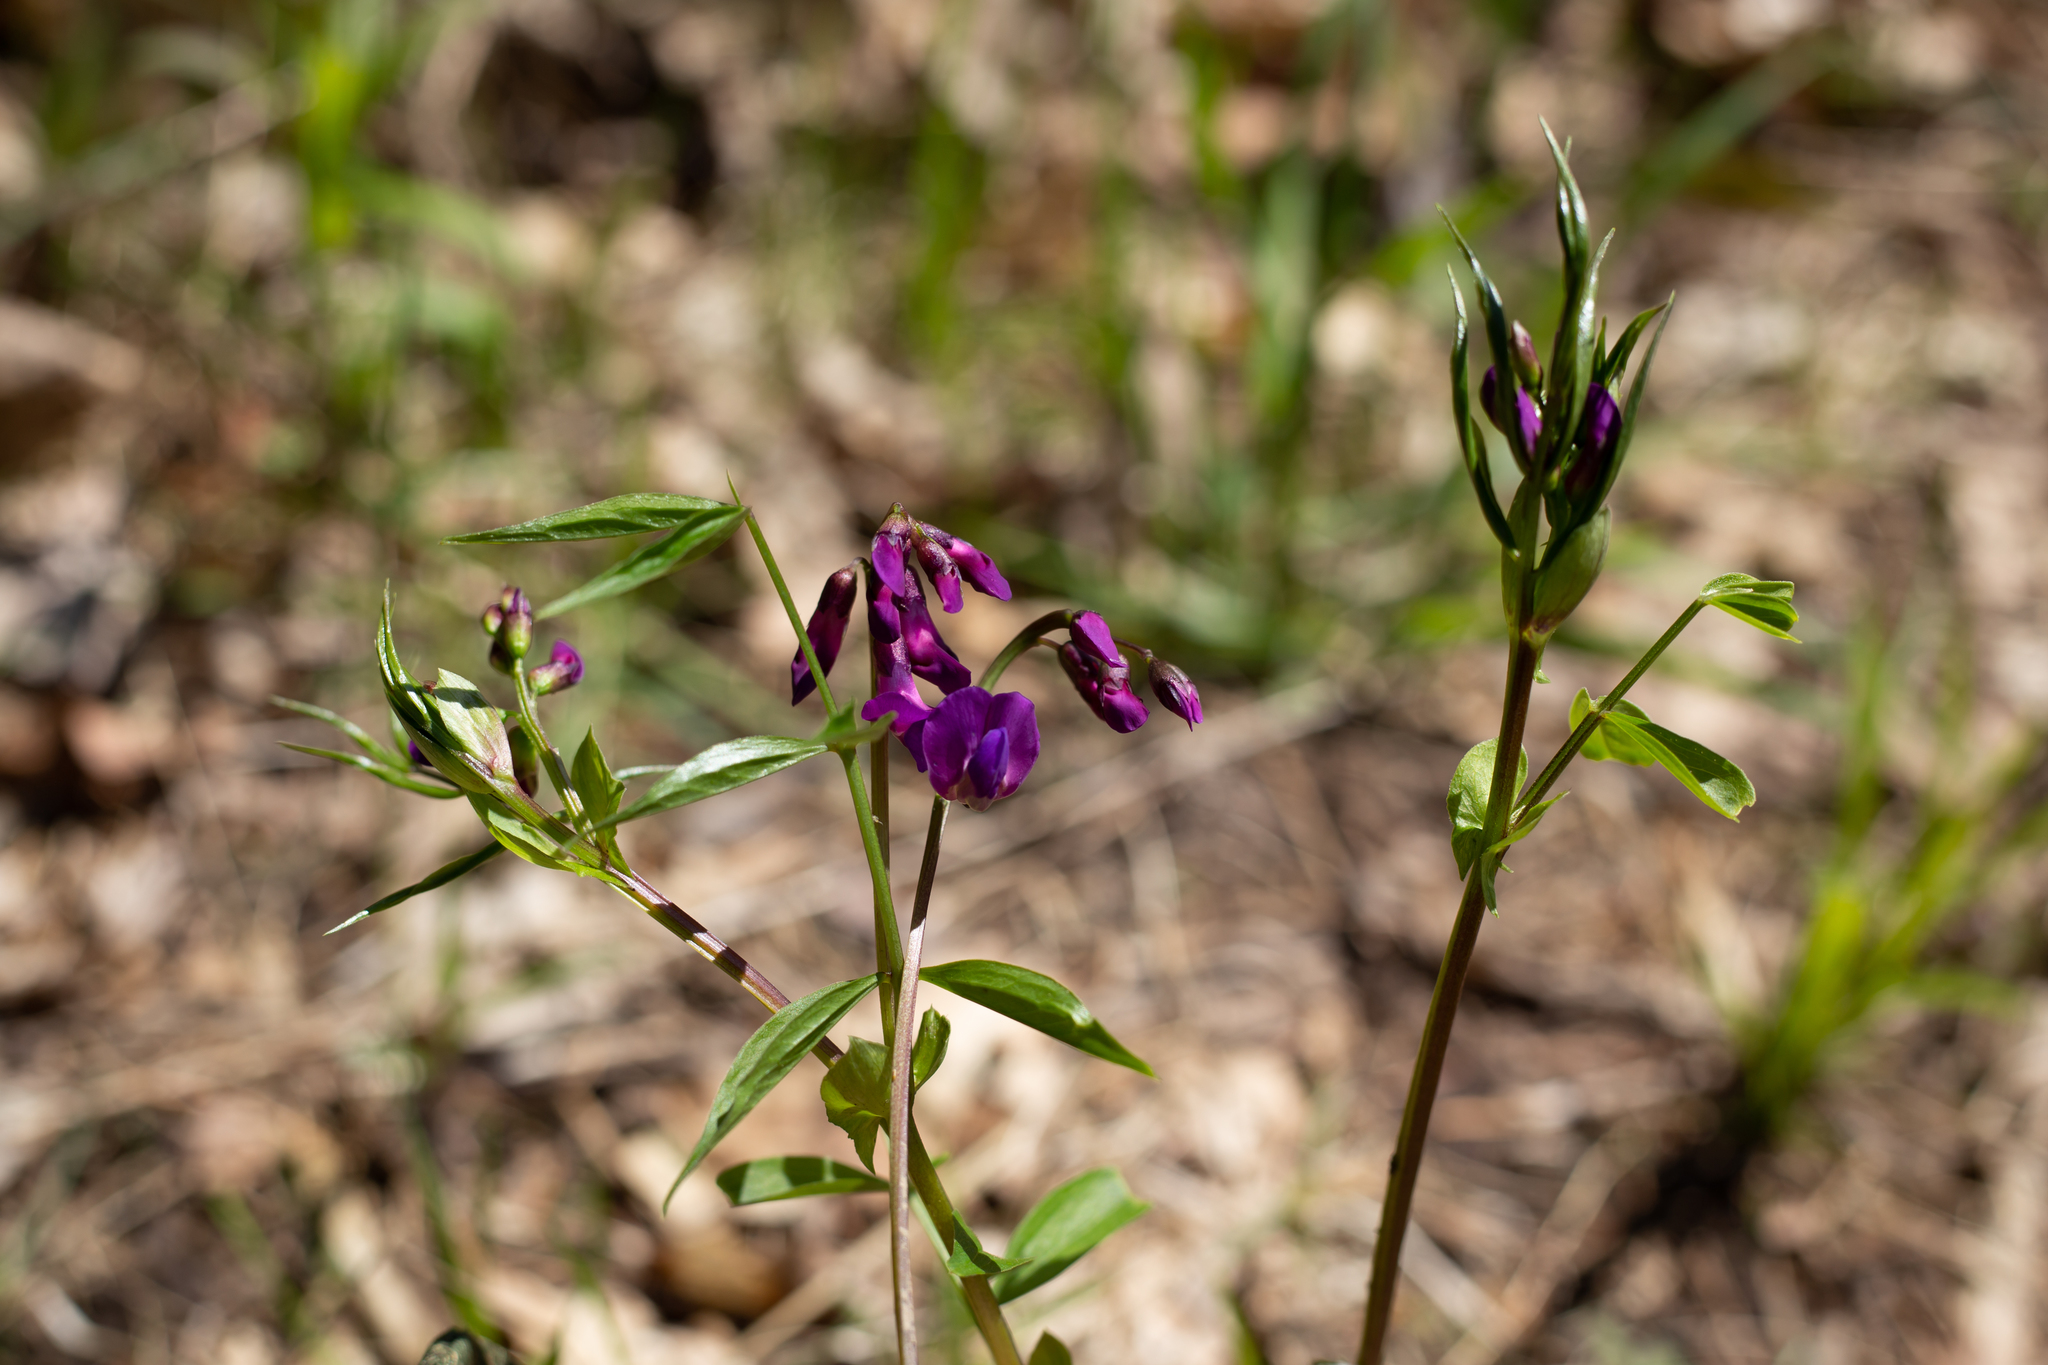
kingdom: Plantae
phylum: Tracheophyta
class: Magnoliopsida
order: Fabales
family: Fabaceae
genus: Lathyrus
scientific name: Lathyrus vernus
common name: Spring pea
